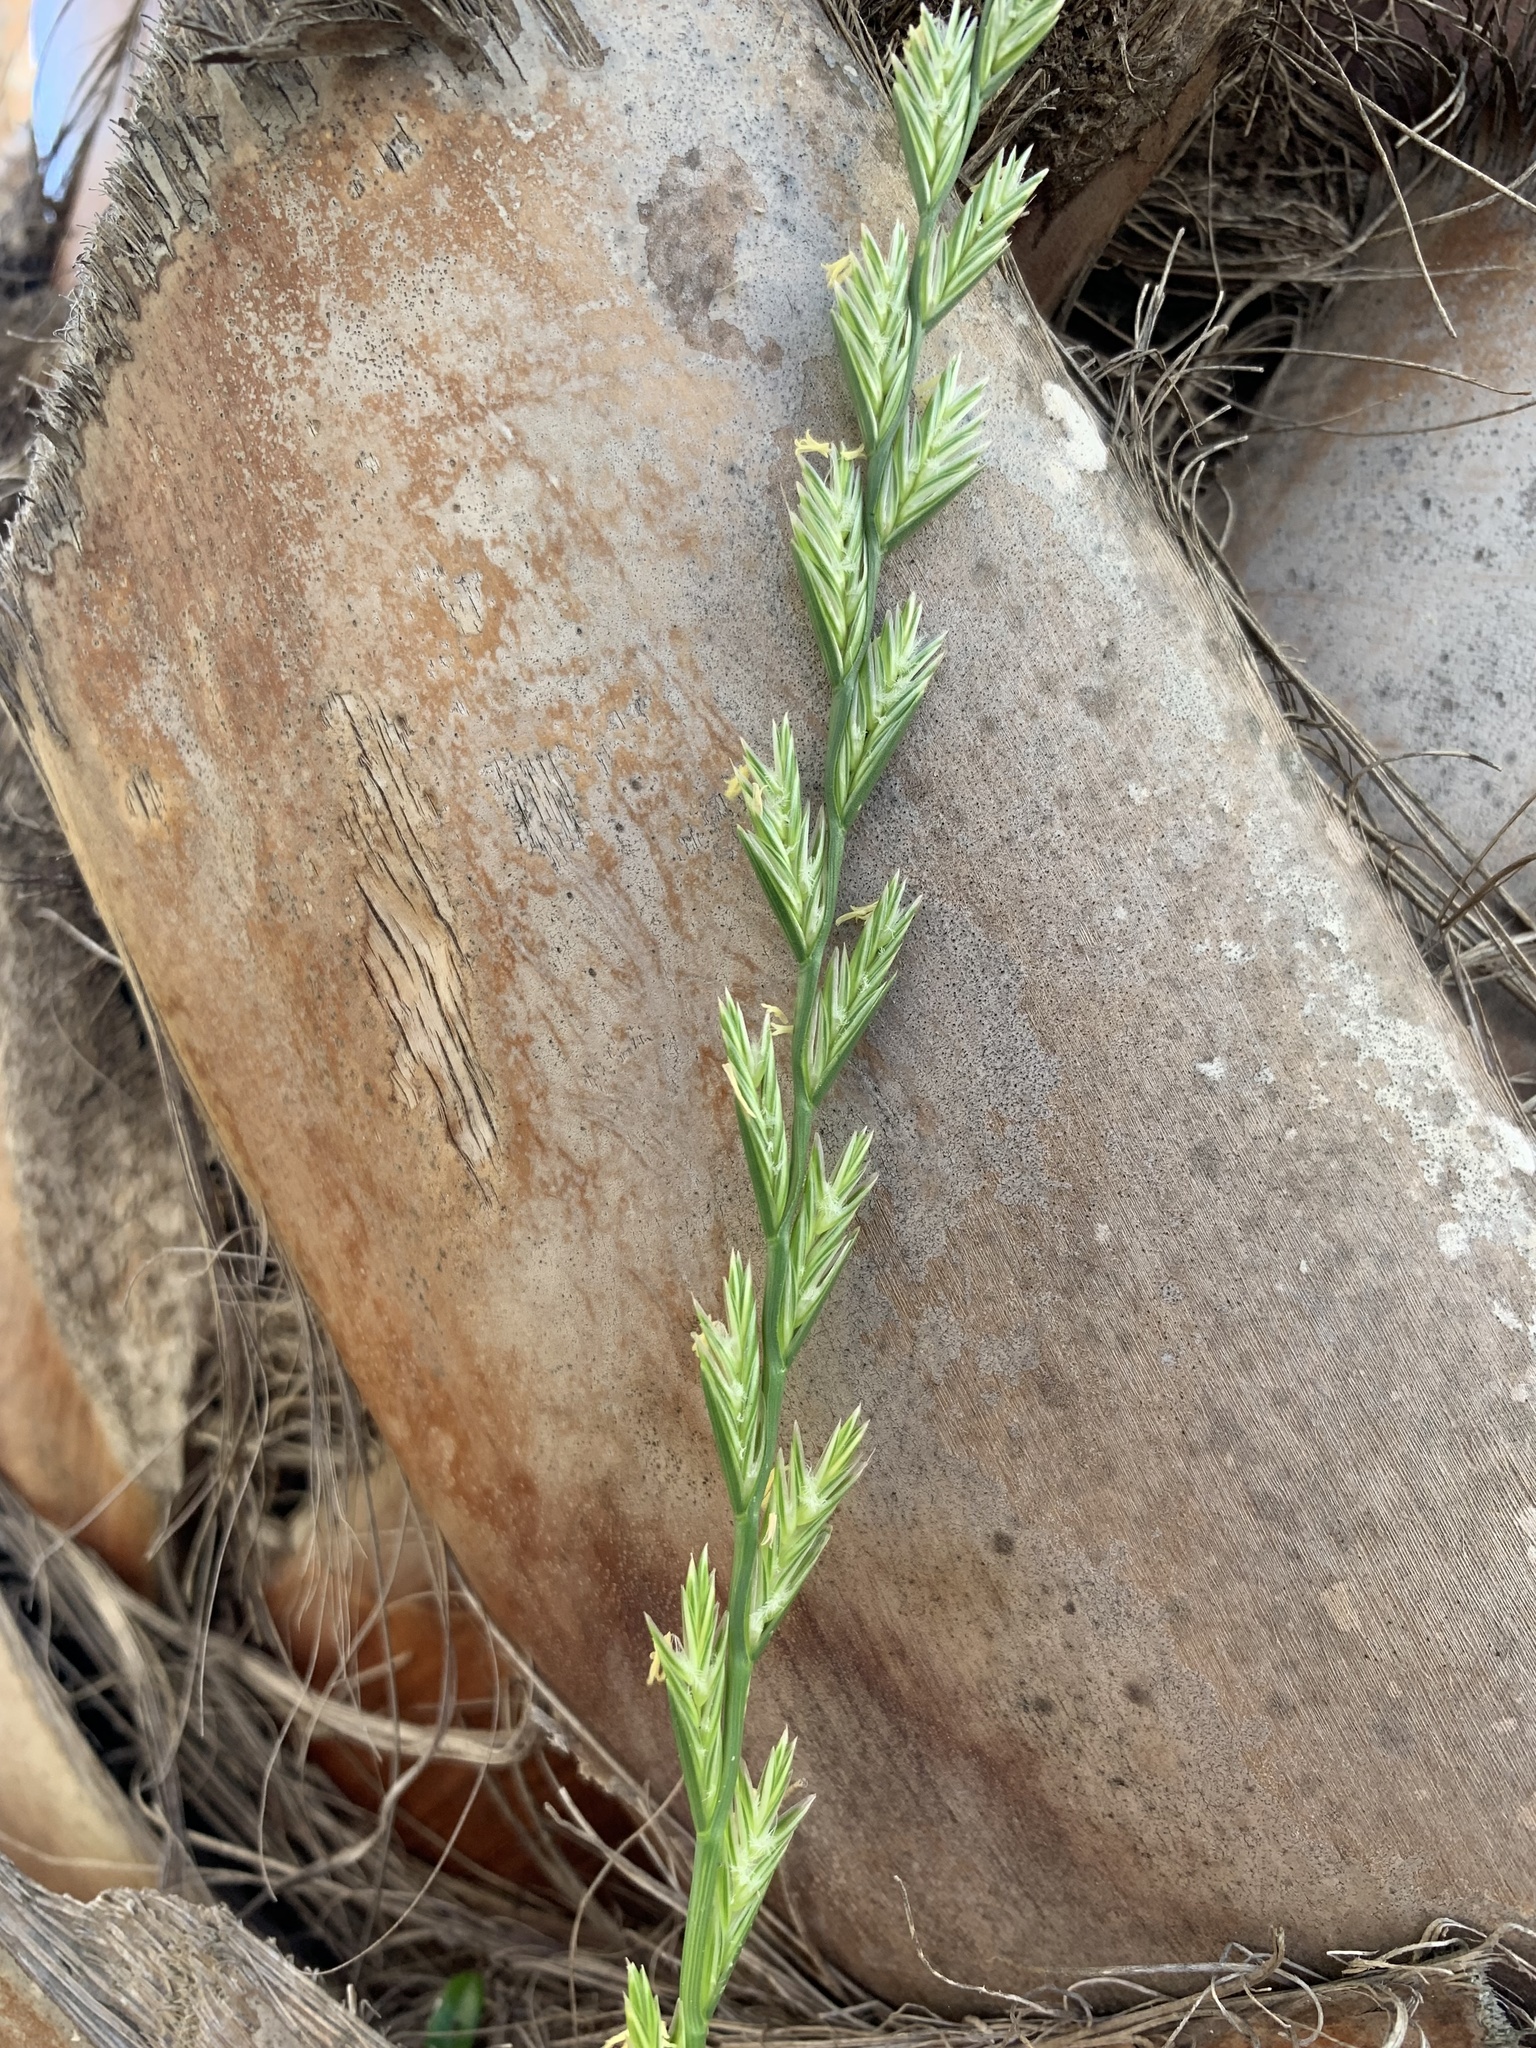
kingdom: Plantae
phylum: Tracheophyta
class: Liliopsida
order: Poales
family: Poaceae
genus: Lolium
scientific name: Lolium multiflorum
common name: Annual ryegrass
